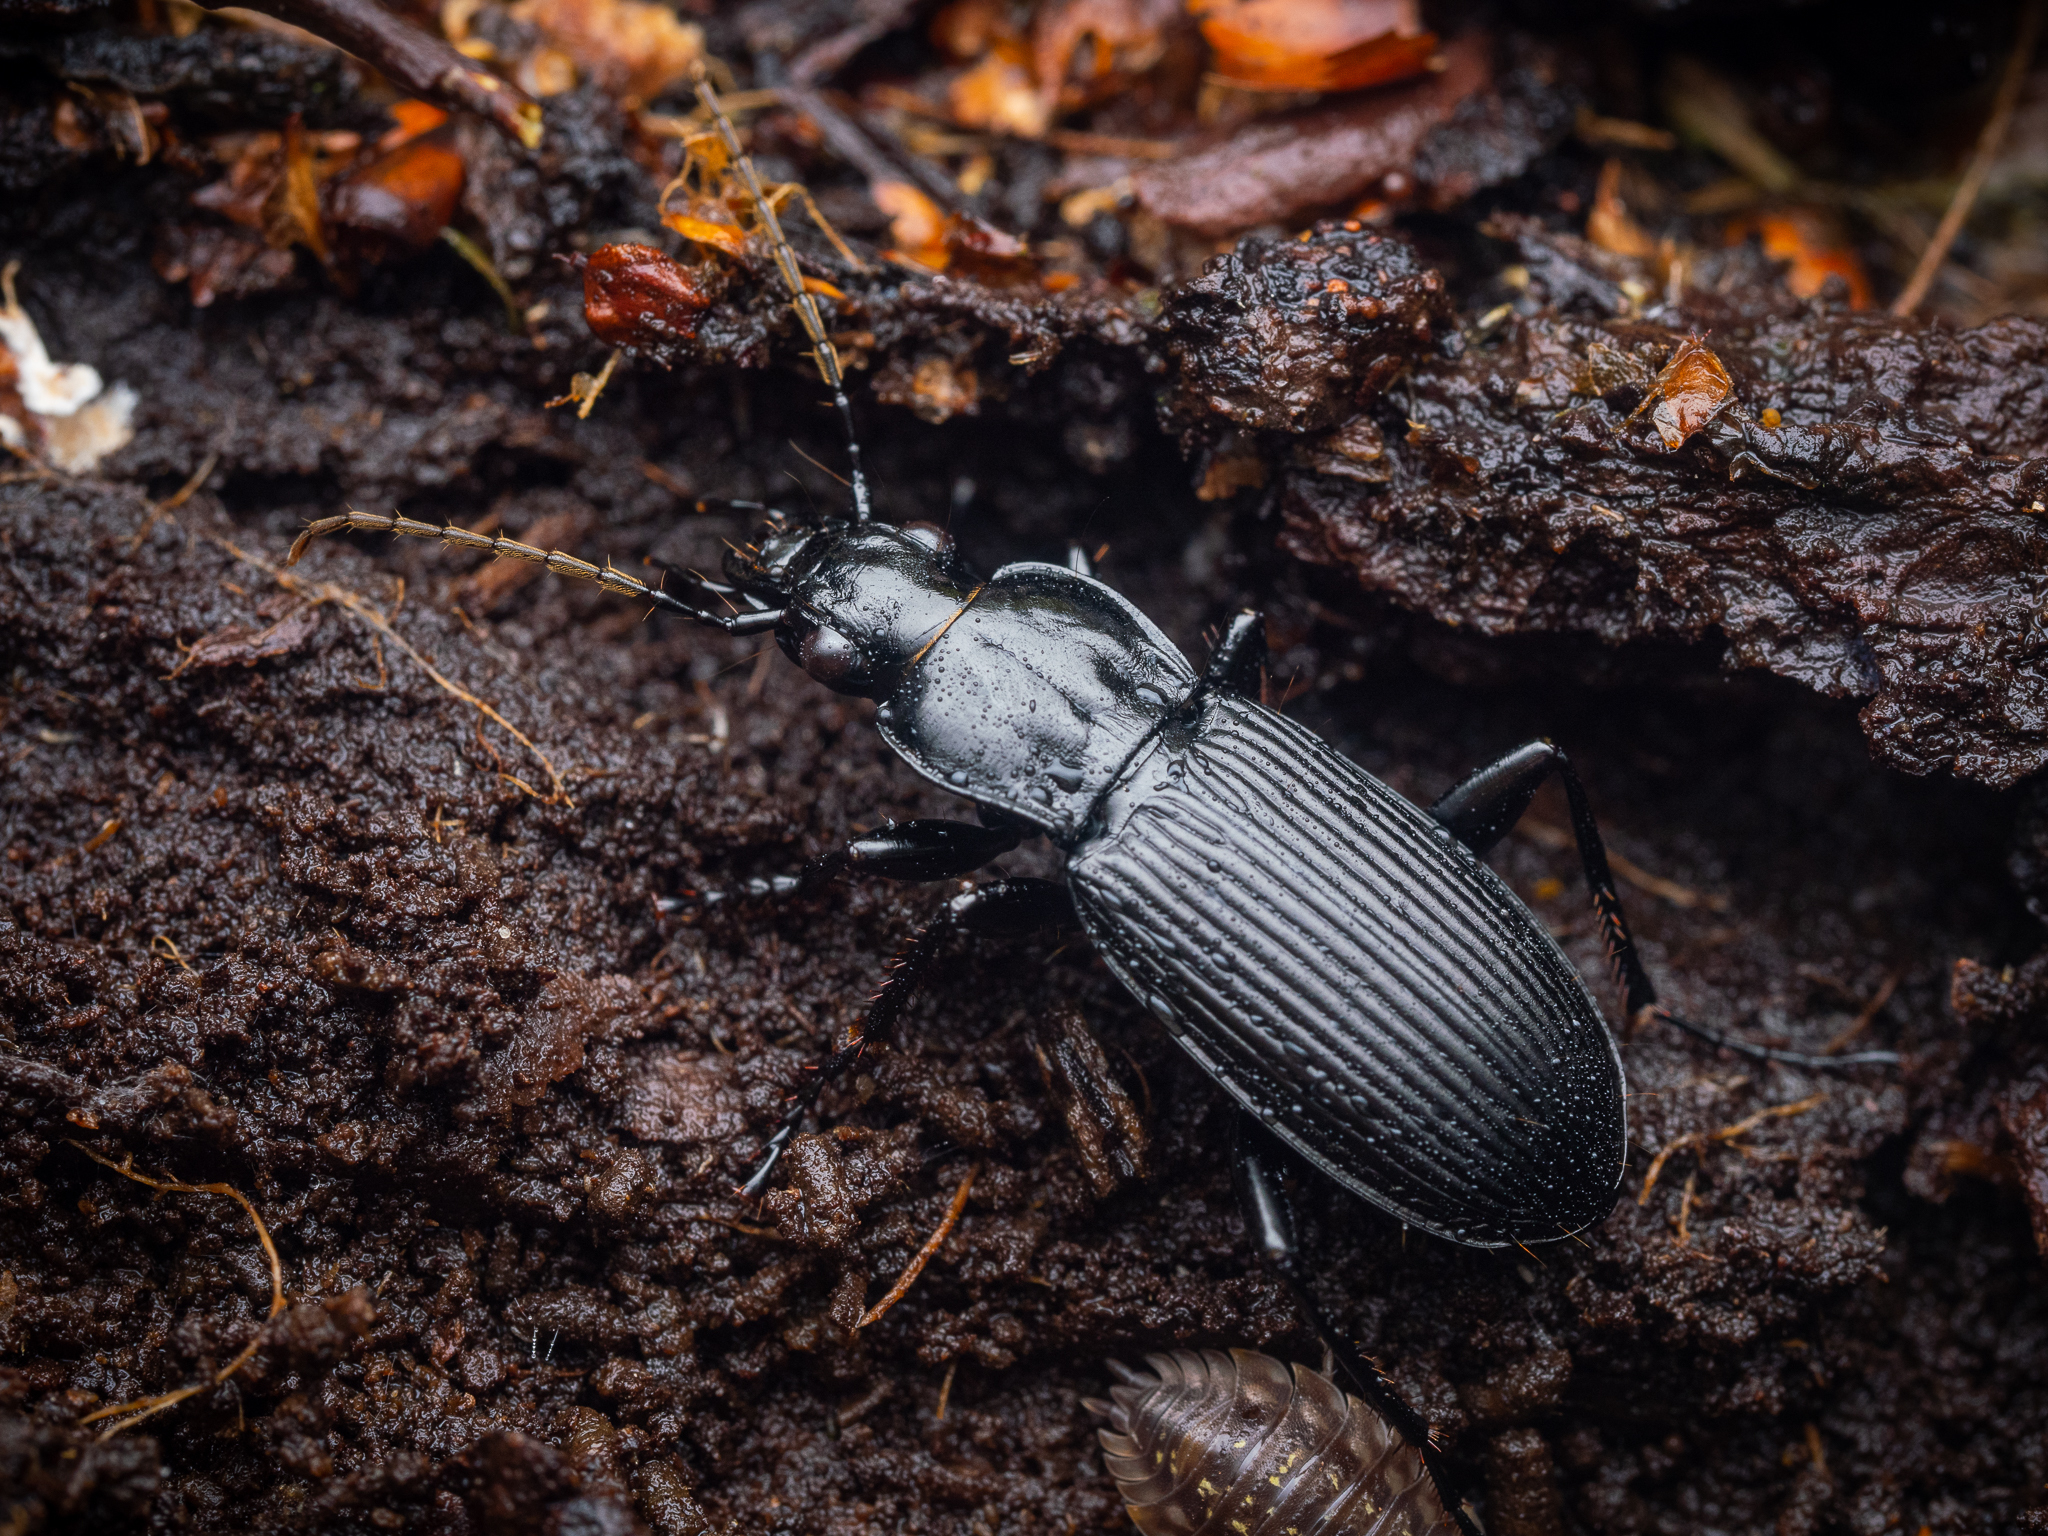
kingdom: Animalia
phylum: Arthropoda
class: Insecta
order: Coleoptera
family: Carabidae
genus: Pterostichus
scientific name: Pterostichus niger
